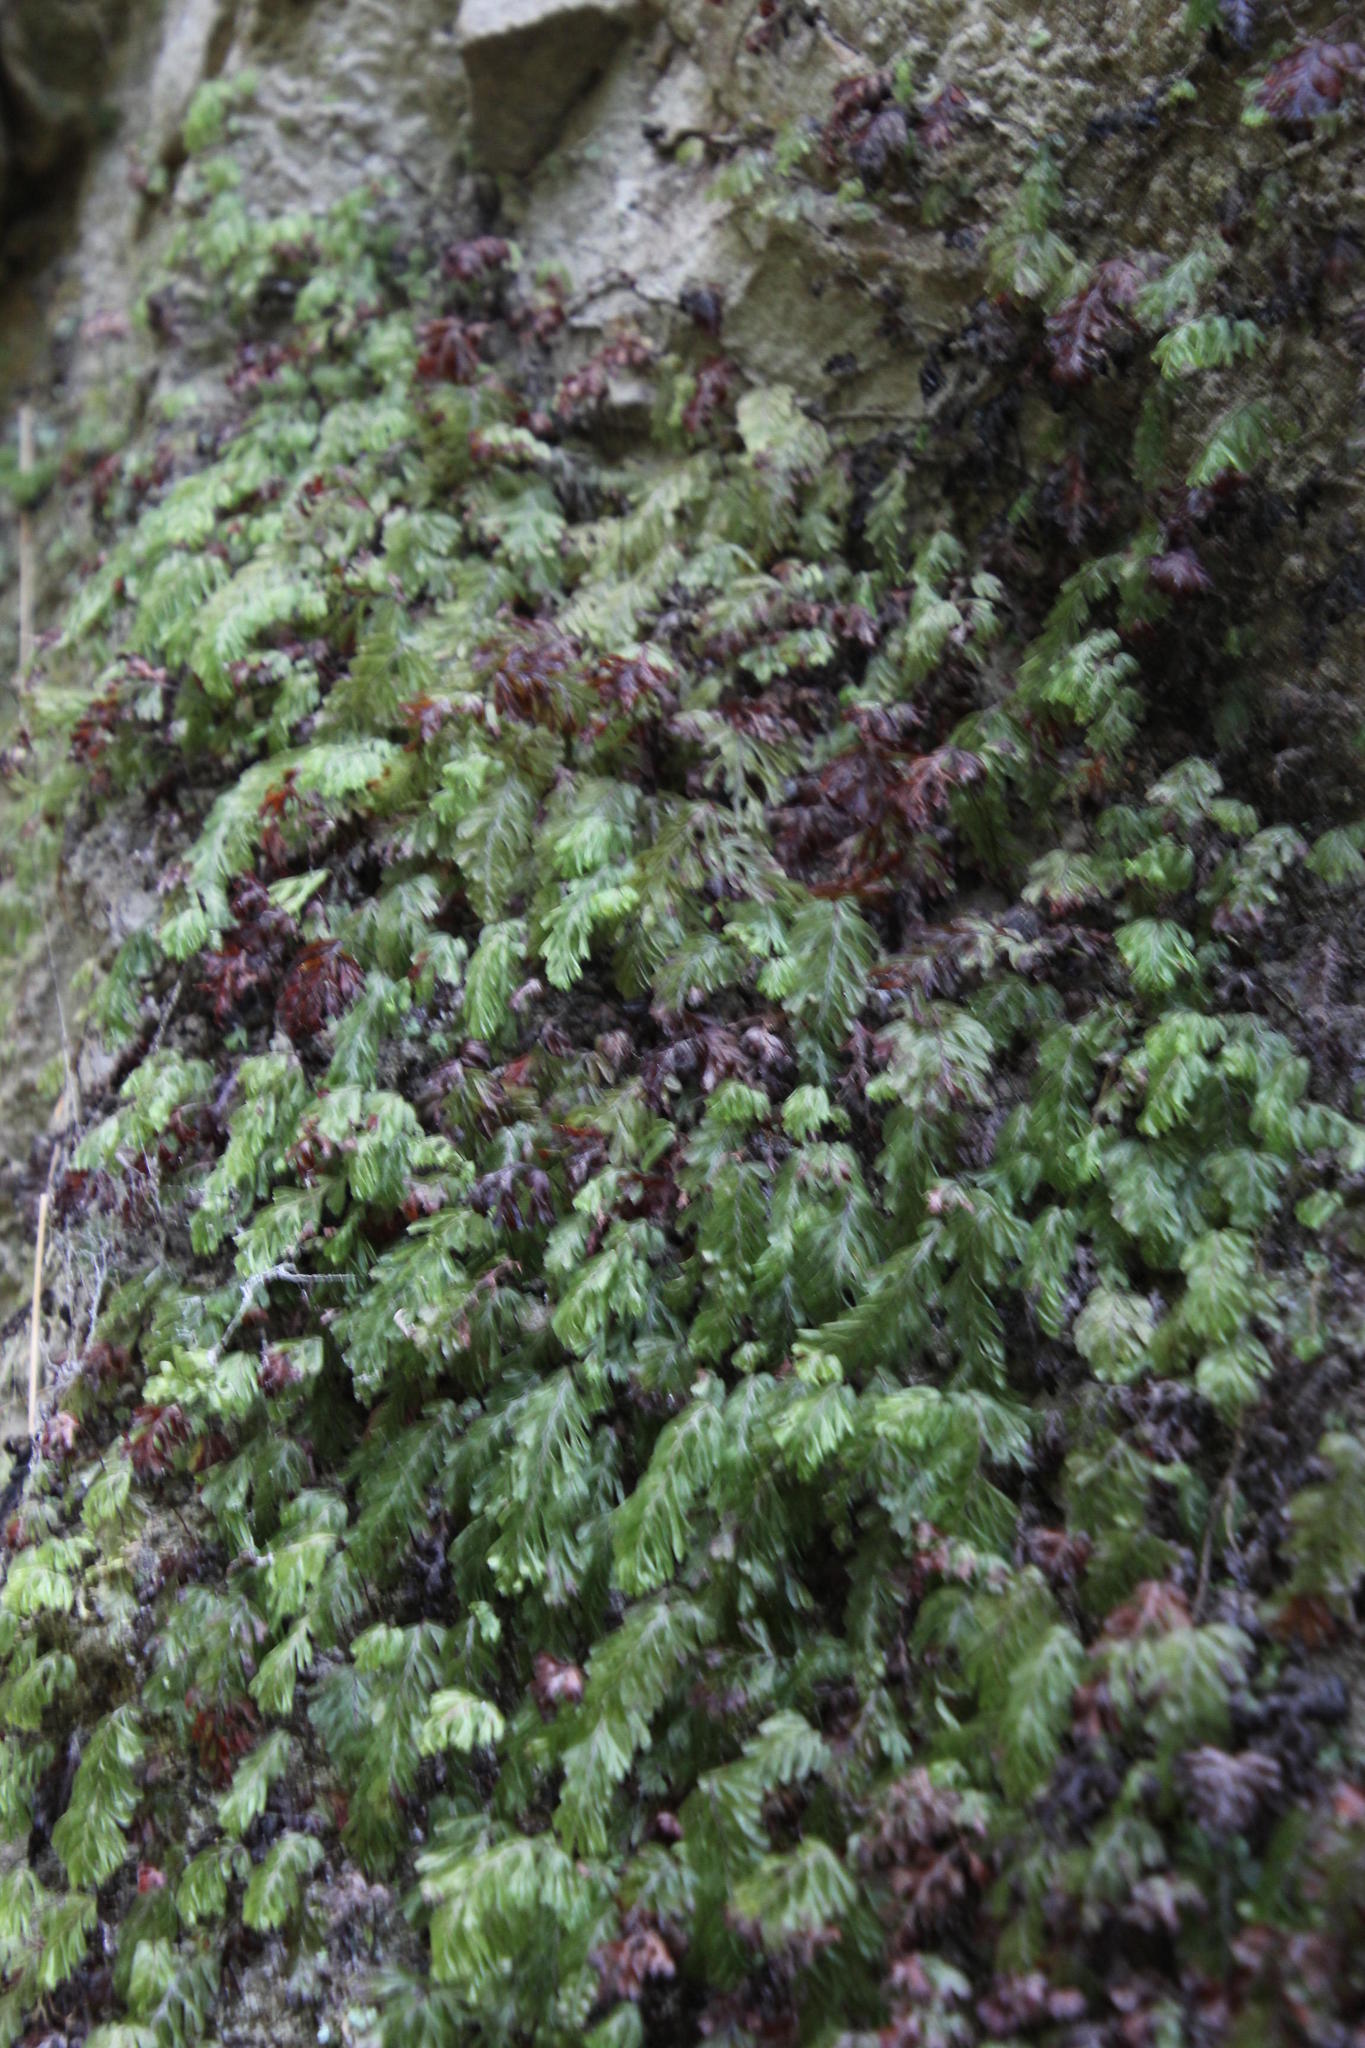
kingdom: Plantae
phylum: Tracheophyta
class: Polypodiopsida
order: Hymenophyllales
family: Hymenophyllaceae
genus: Hymenophyllum
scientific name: Hymenophyllum capense
